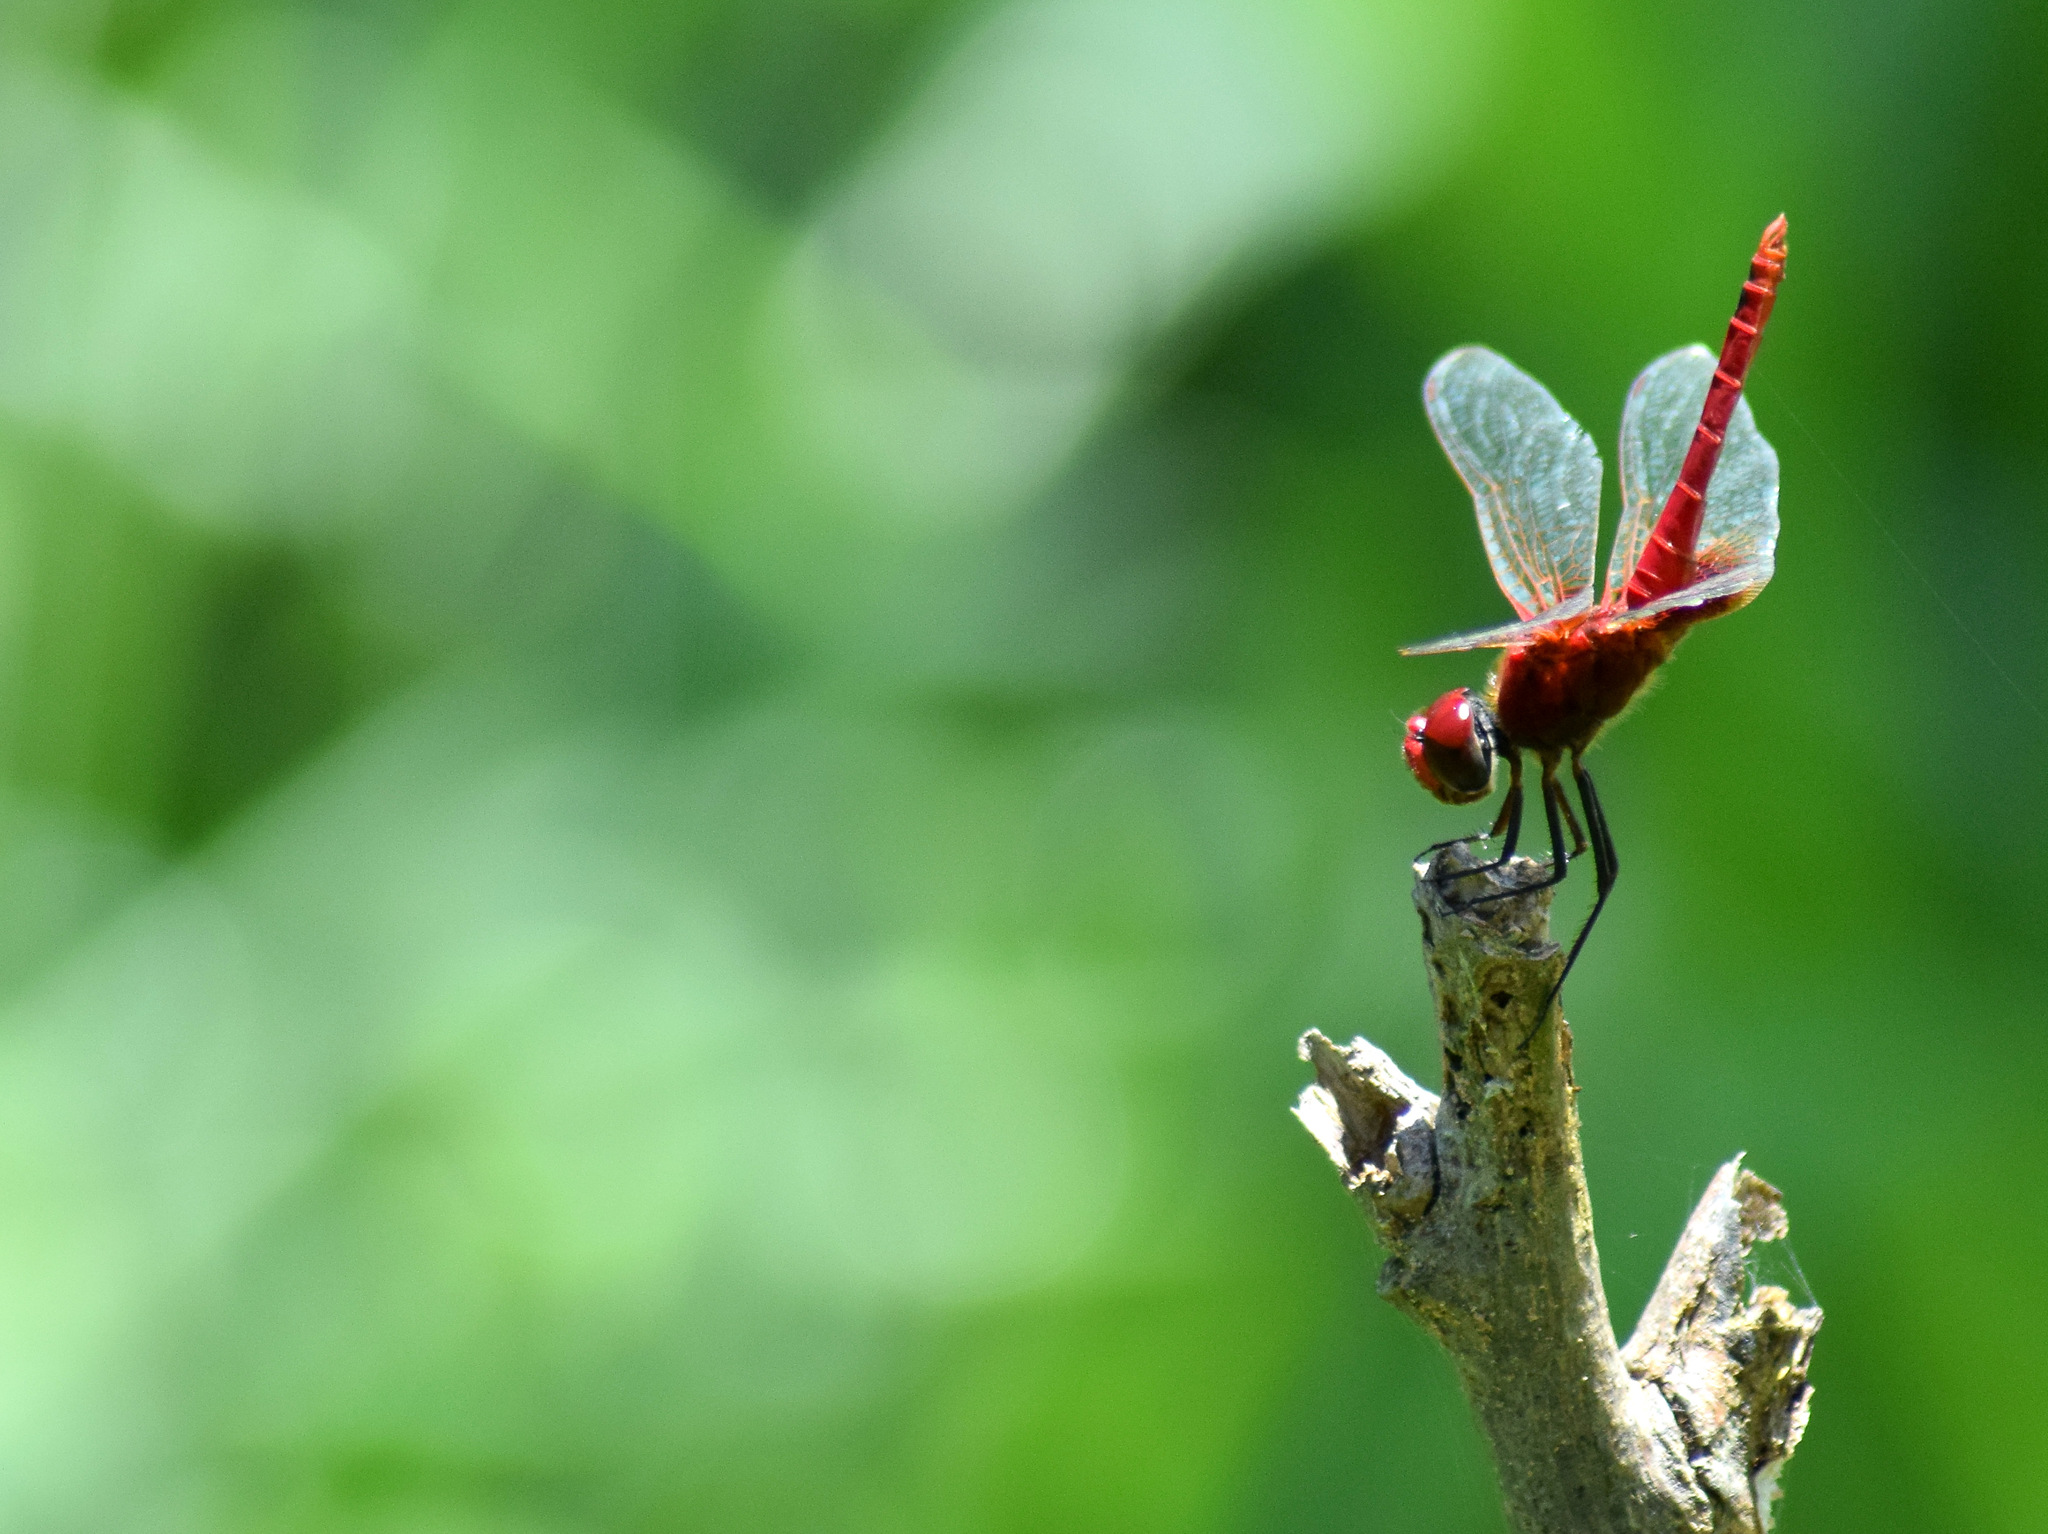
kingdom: Animalia
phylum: Arthropoda
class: Insecta
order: Odonata
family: Libellulidae
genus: Urothemis
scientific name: Urothemis signata
